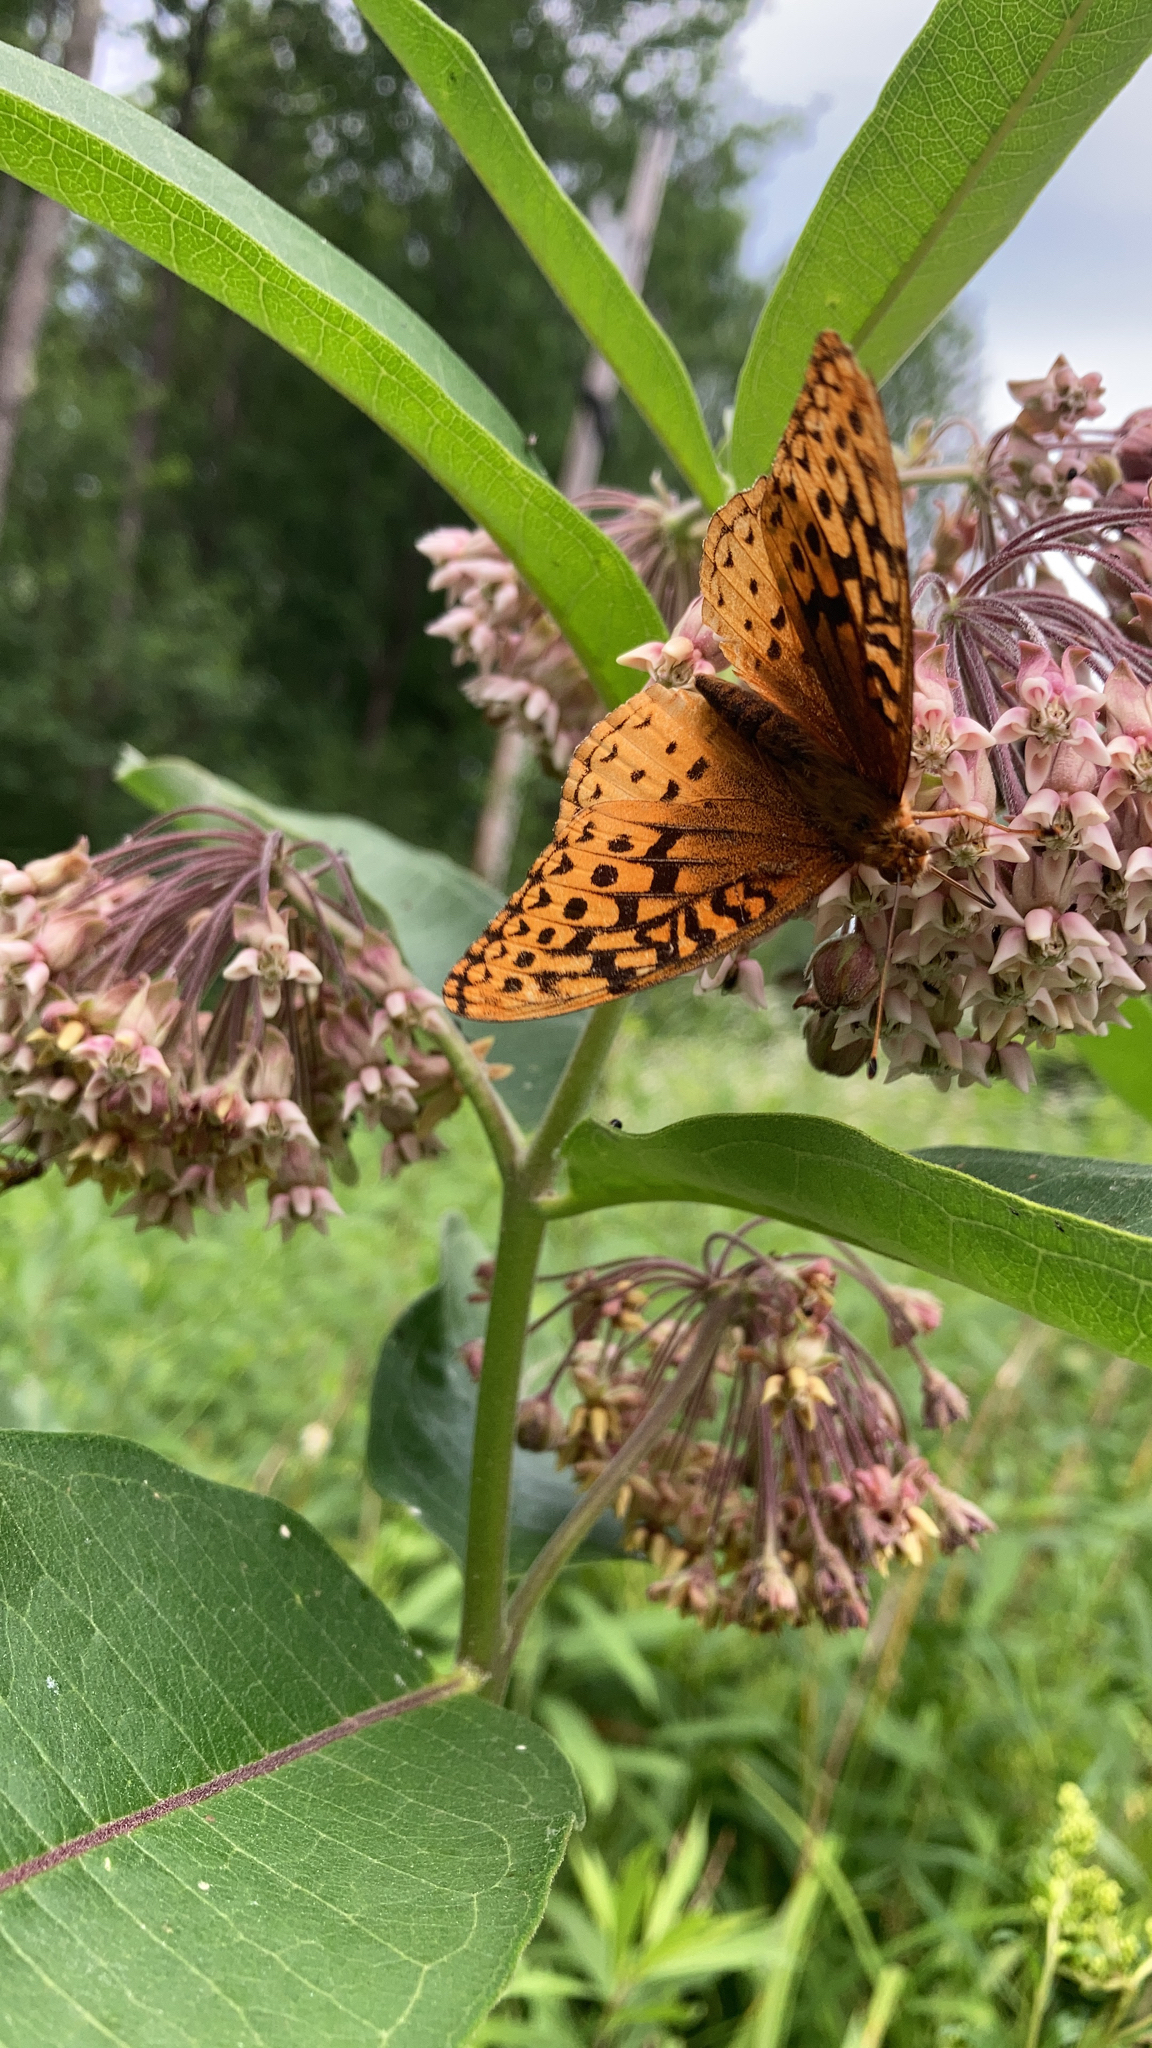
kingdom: Animalia
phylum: Arthropoda
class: Insecta
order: Lepidoptera
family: Nymphalidae
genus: Speyeria
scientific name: Speyeria cybele
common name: Great spangled fritillary
